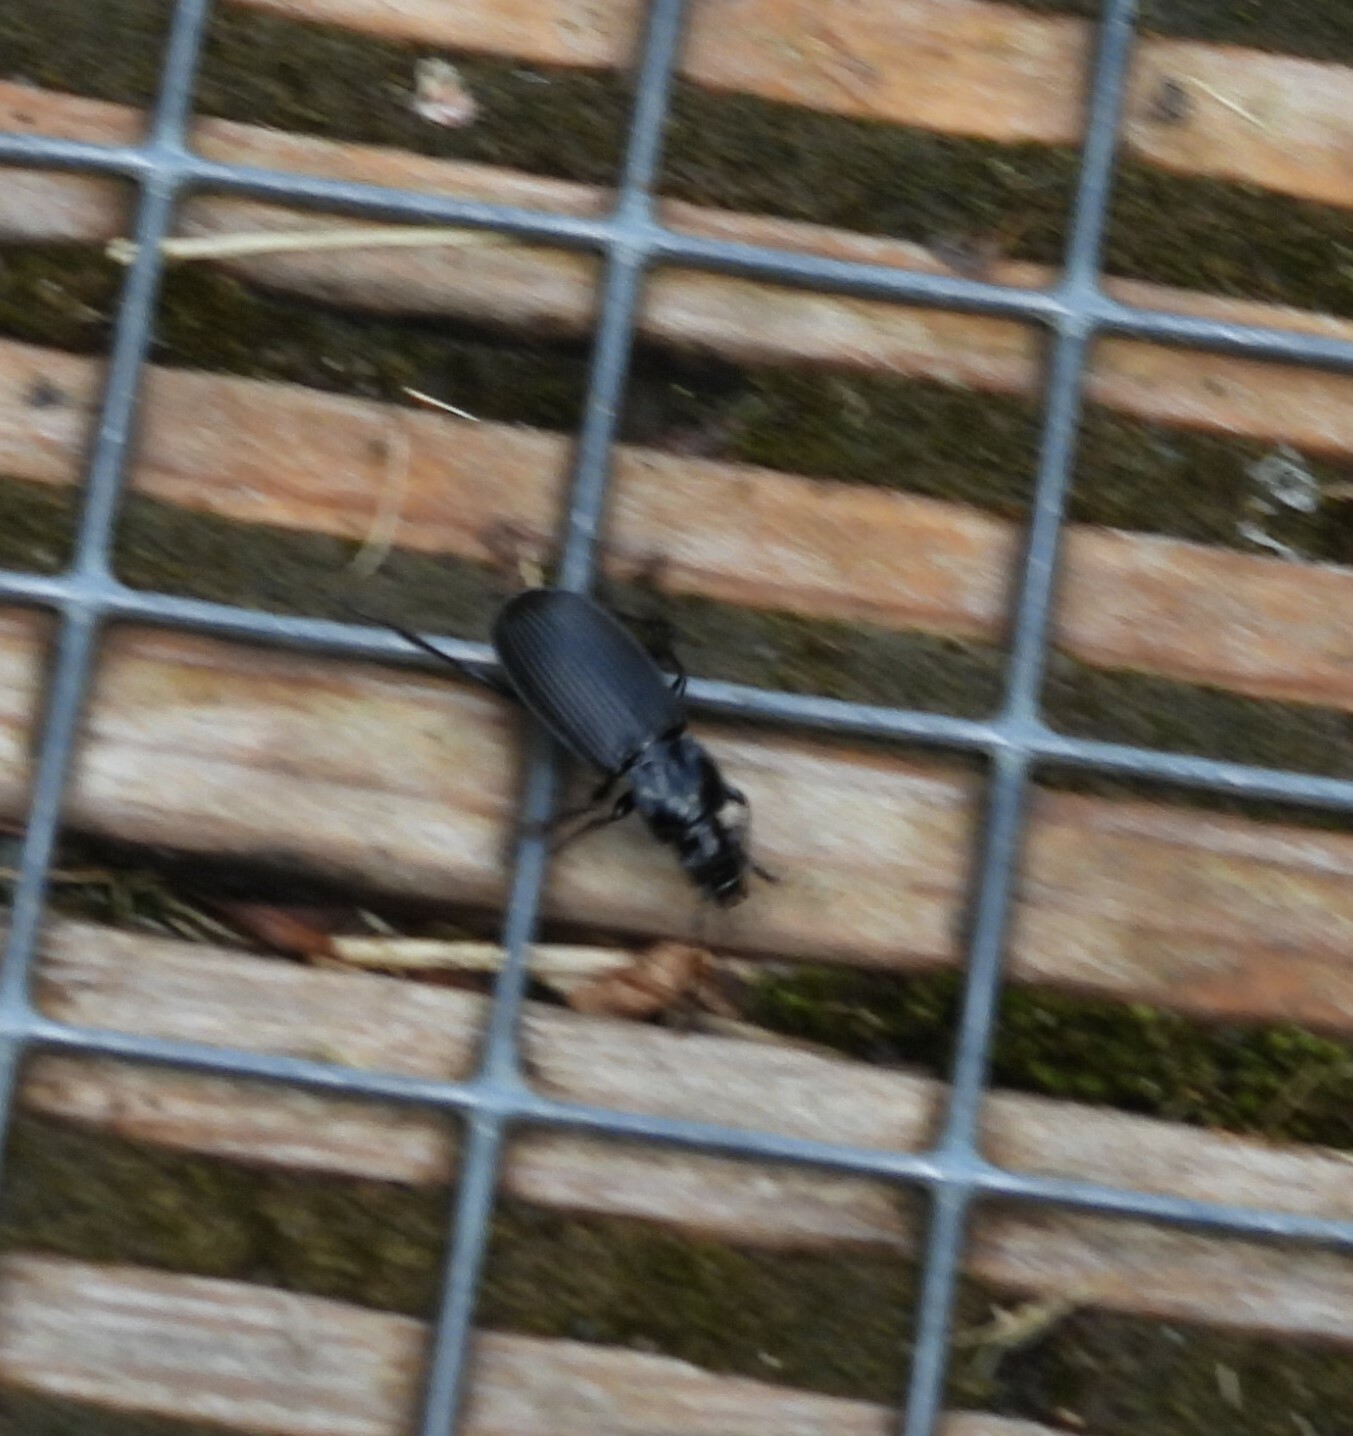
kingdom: Animalia
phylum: Arthropoda
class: Insecta
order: Coleoptera
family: Carabidae
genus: Pterostichus
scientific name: Pterostichus niger
